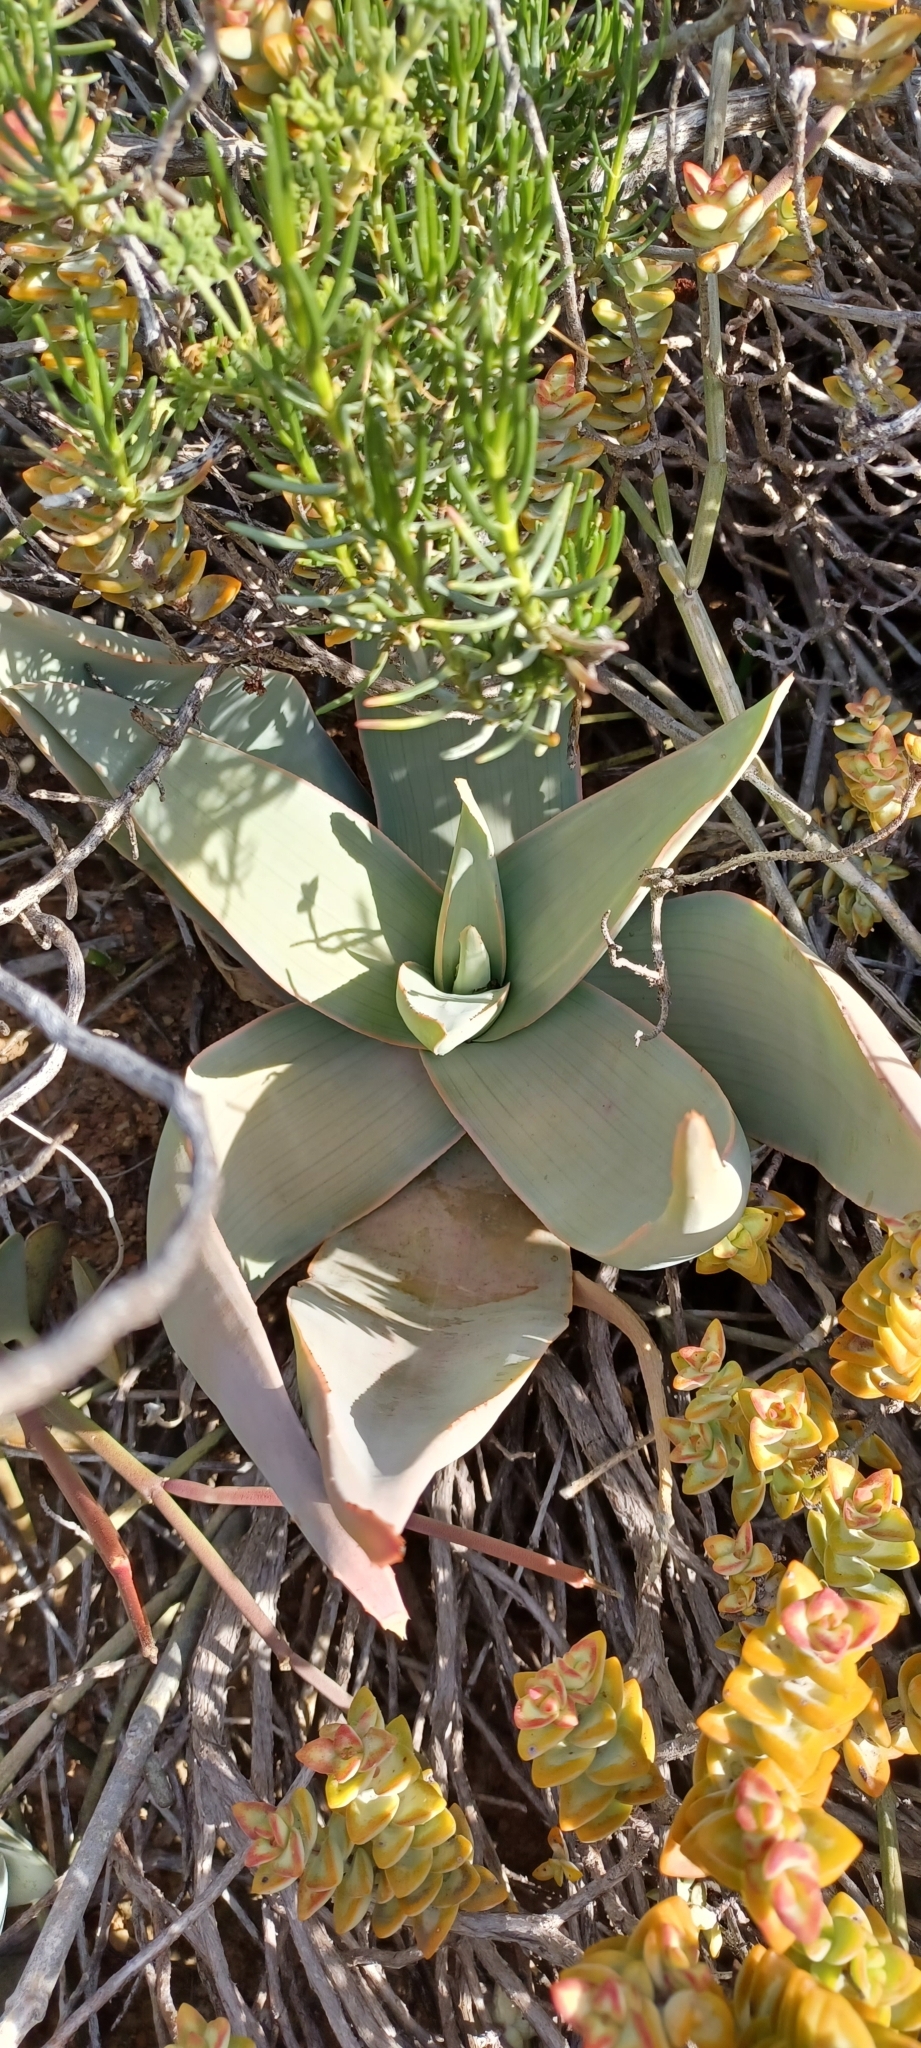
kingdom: Plantae
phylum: Tracheophyta
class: Liliopsida
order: Asparagales
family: Asphodelaceae
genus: Aloe
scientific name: Aloe striata
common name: Coral aloe
